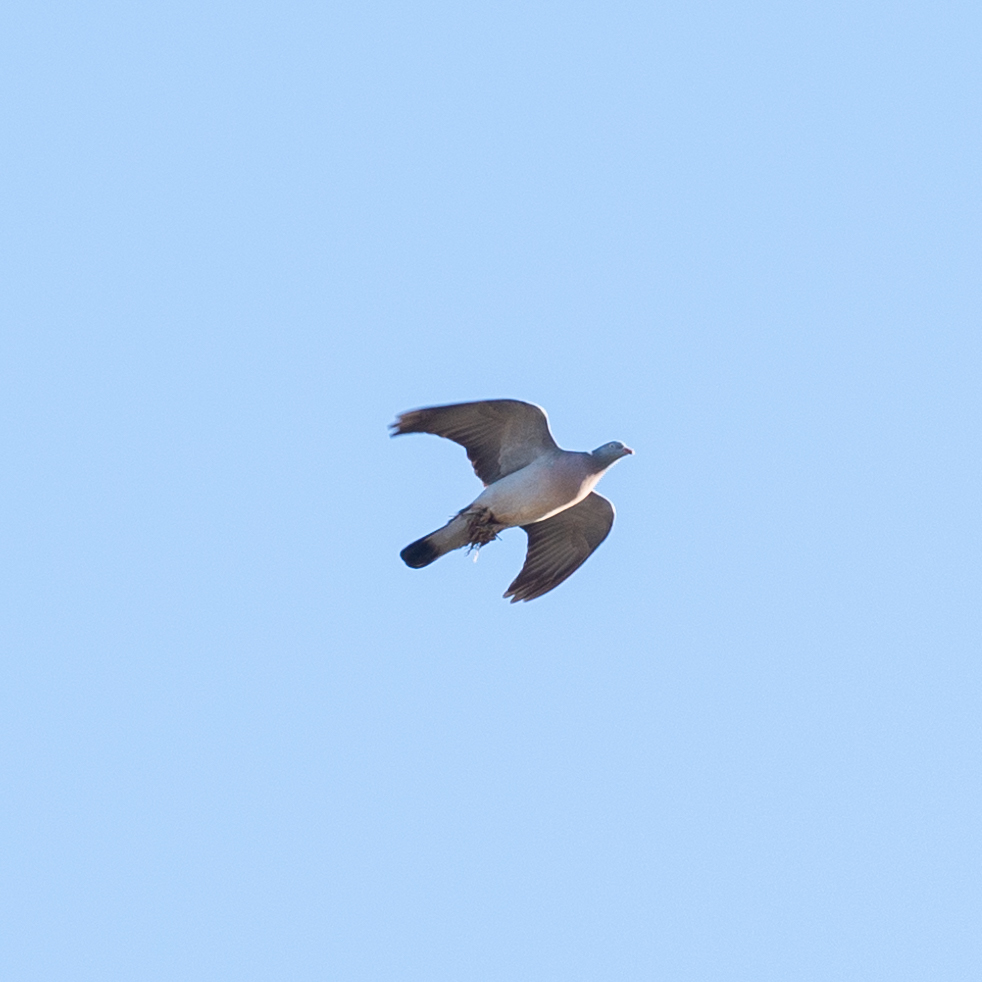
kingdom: Animalia
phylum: Chordata
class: Aves
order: Columbiformes
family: Columbidae
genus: Columba
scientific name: Columba palumbus
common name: Common wood pigeon
